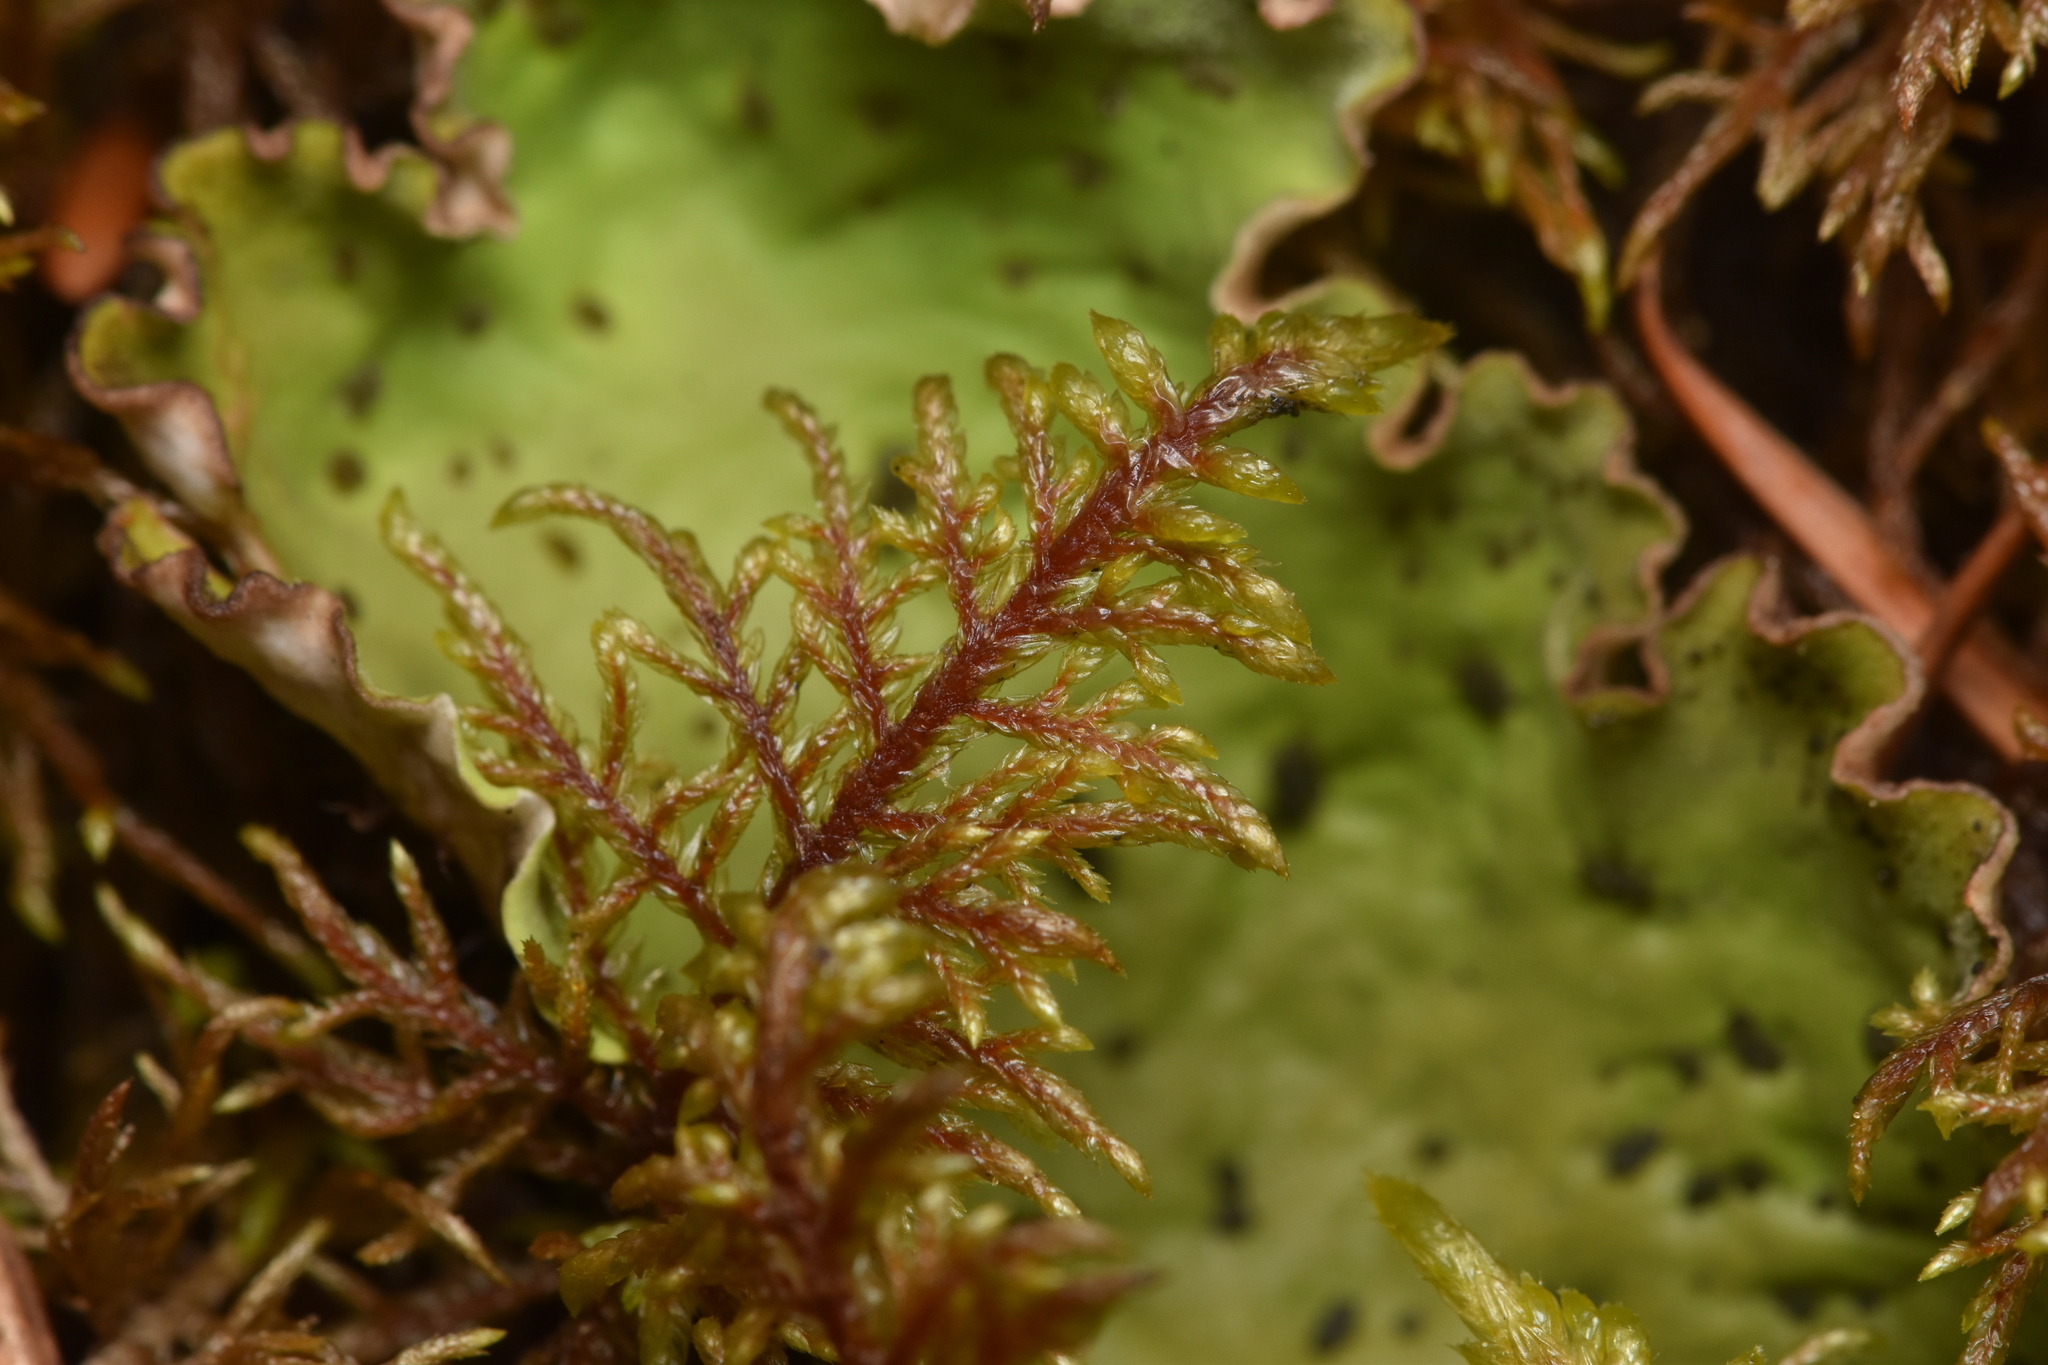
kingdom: Plantae
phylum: Bryophyta
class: Bryopsida
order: Hypnales
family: Hylocomiaceae
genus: Hylocomium
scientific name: Hylocomium splendens
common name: Stairstep moss
